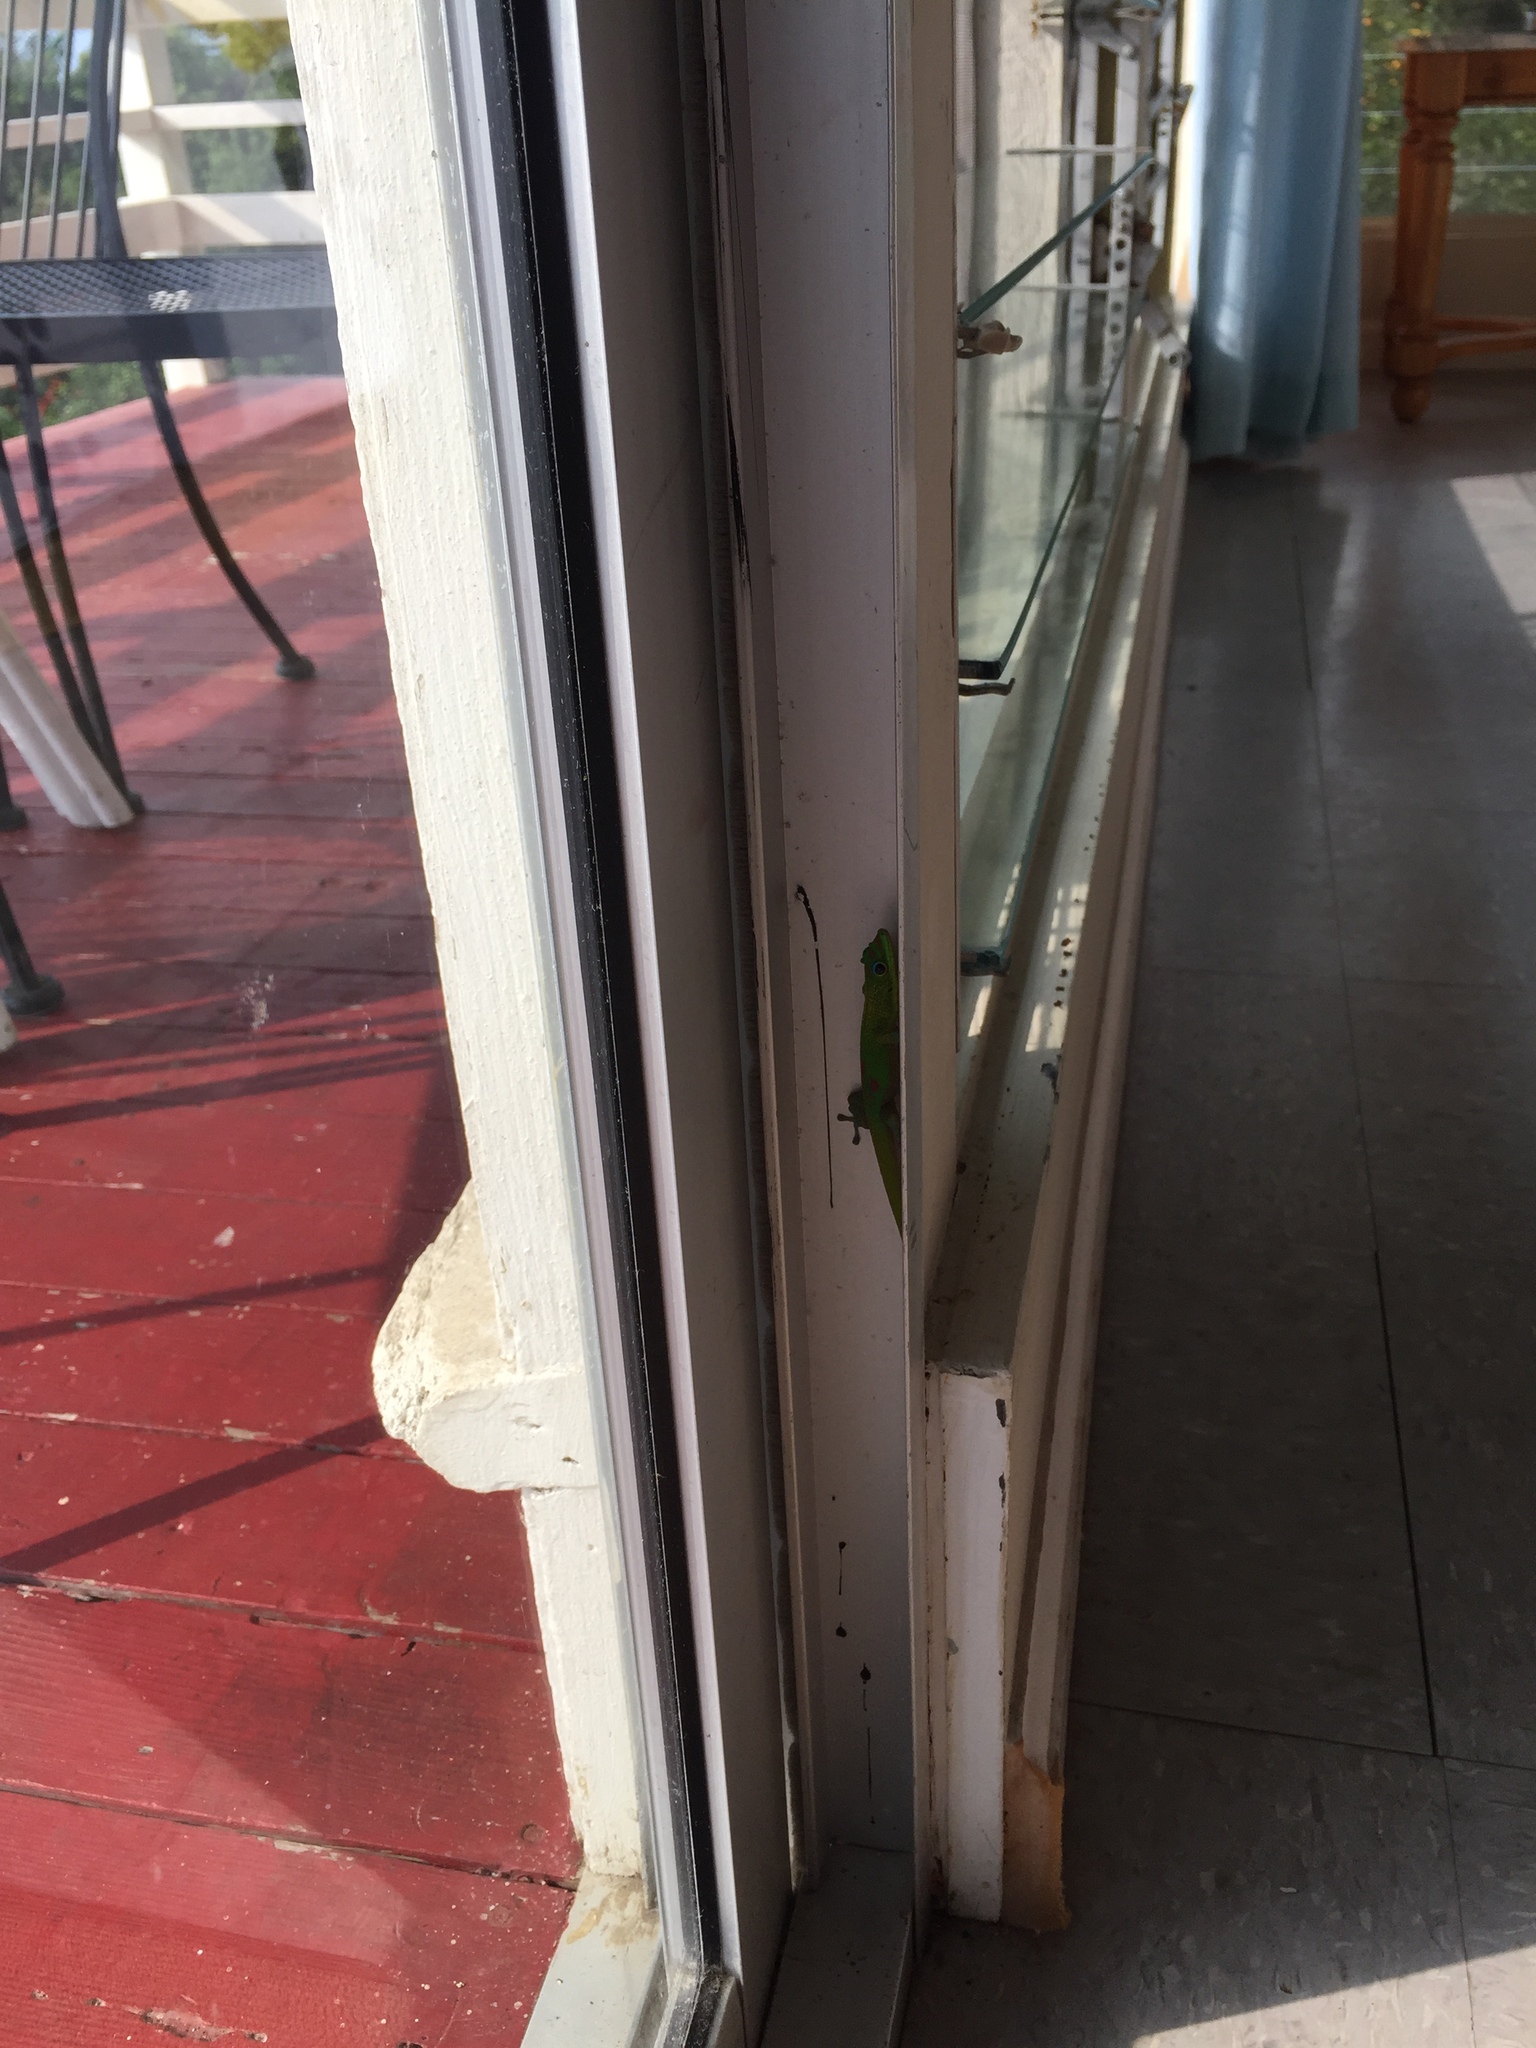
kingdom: Animalia
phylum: Chordata
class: Squamata
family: Gekkonidae
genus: Phelsuma
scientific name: Phelsuma laticauda
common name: Gold dust day gecko
